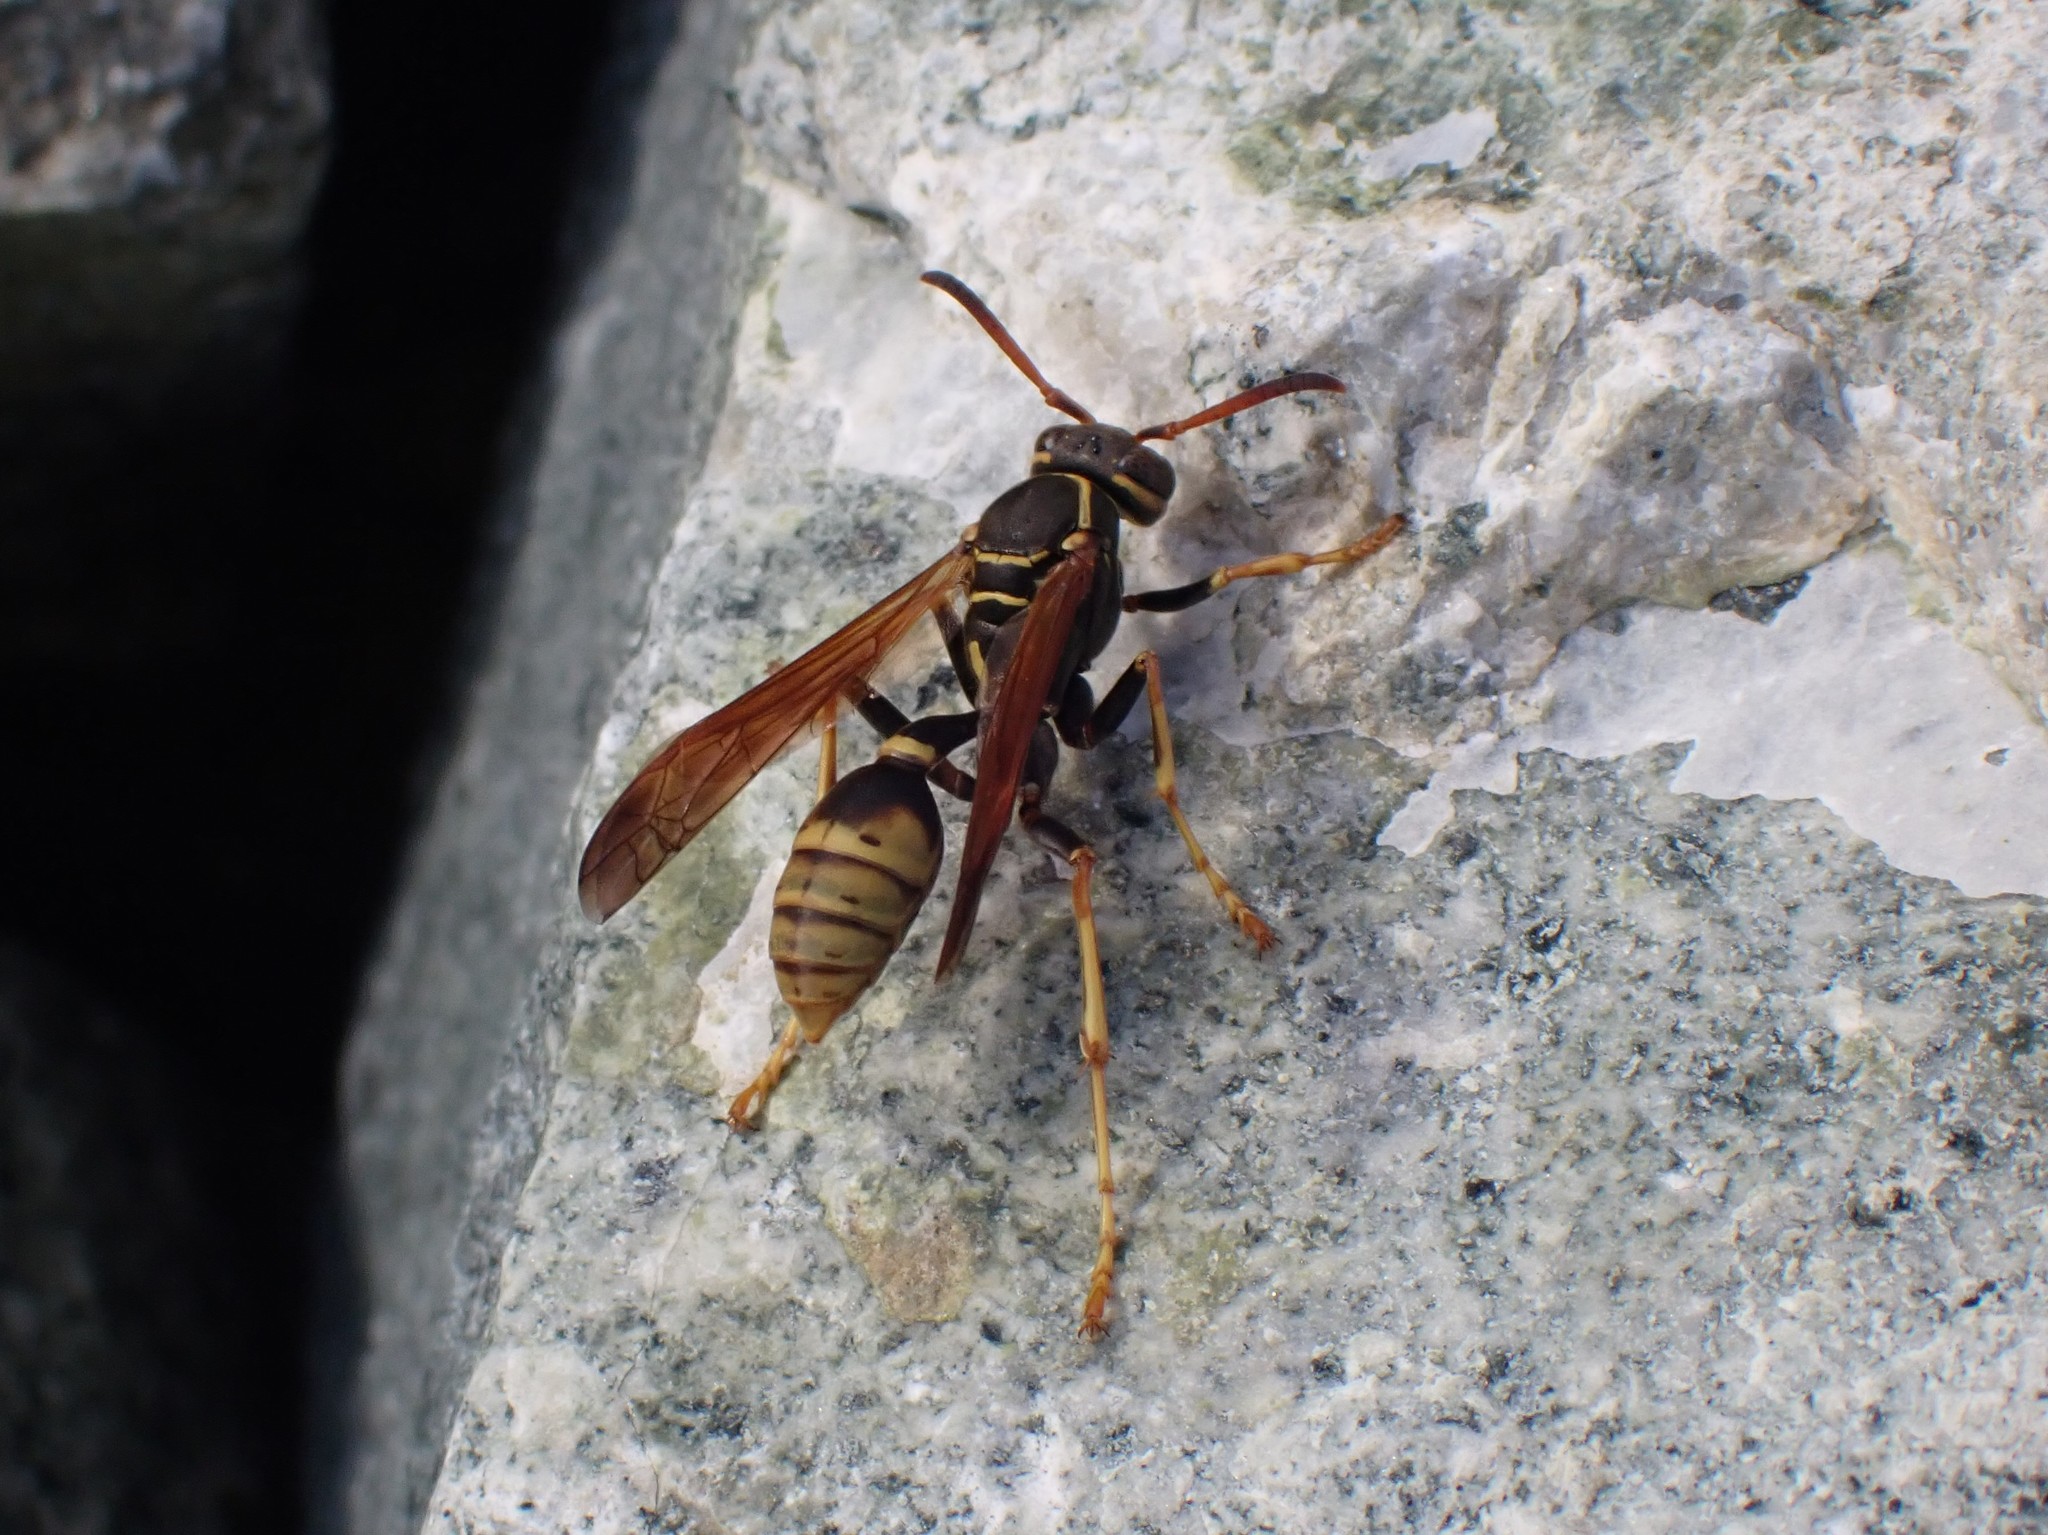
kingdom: Animalia
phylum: Arthropoda
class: Insecta
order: Hymenoptera
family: Vespidae
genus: Mischocyttarus
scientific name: Mischocyttarus flavitarsis
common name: Wasp
